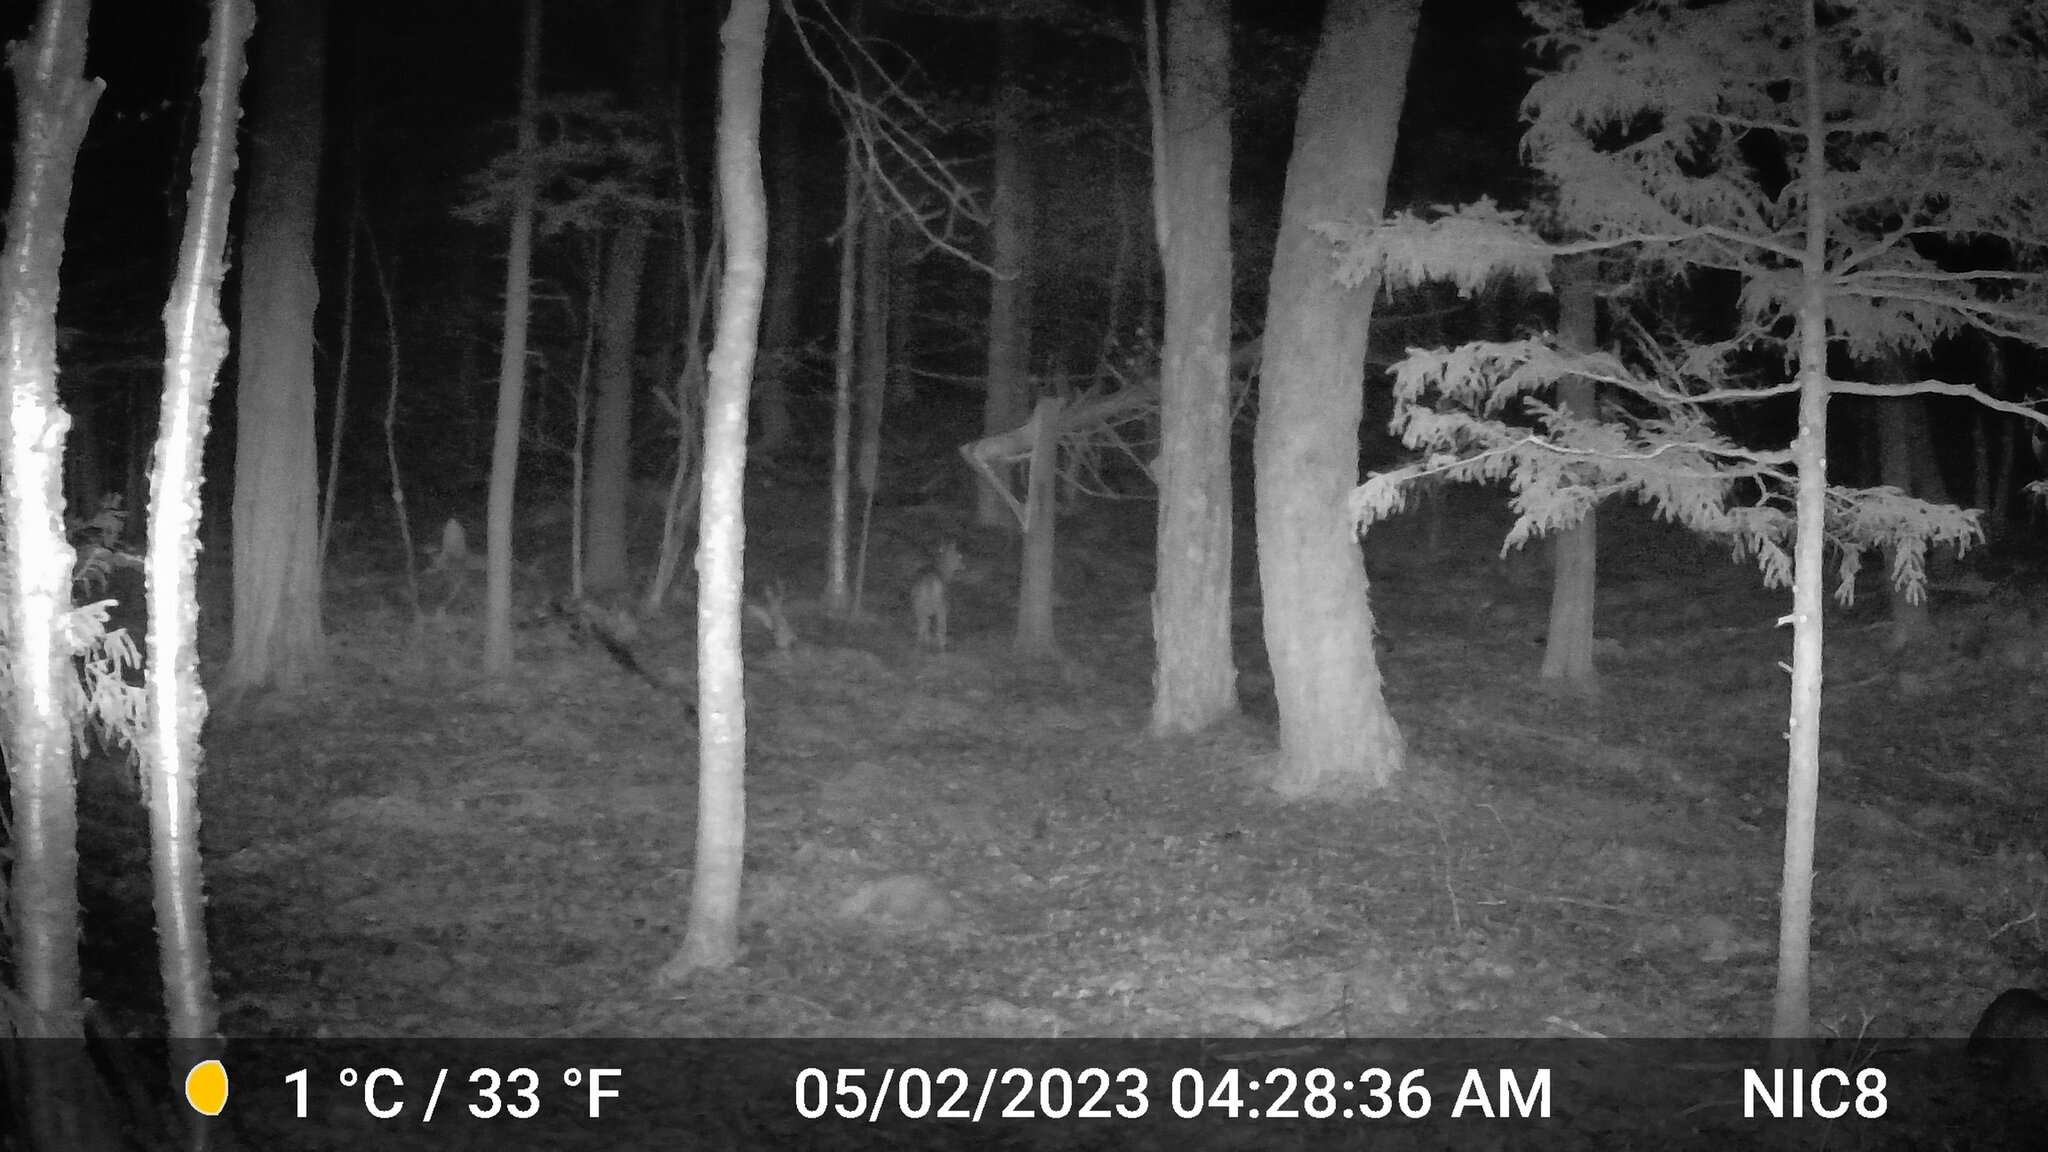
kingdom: Animalia
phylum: Chordata
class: Mammalia
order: Artiodactyla
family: Cervidae
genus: Odocoileus
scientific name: Odocoileus virginianus
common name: White-tailed deer
